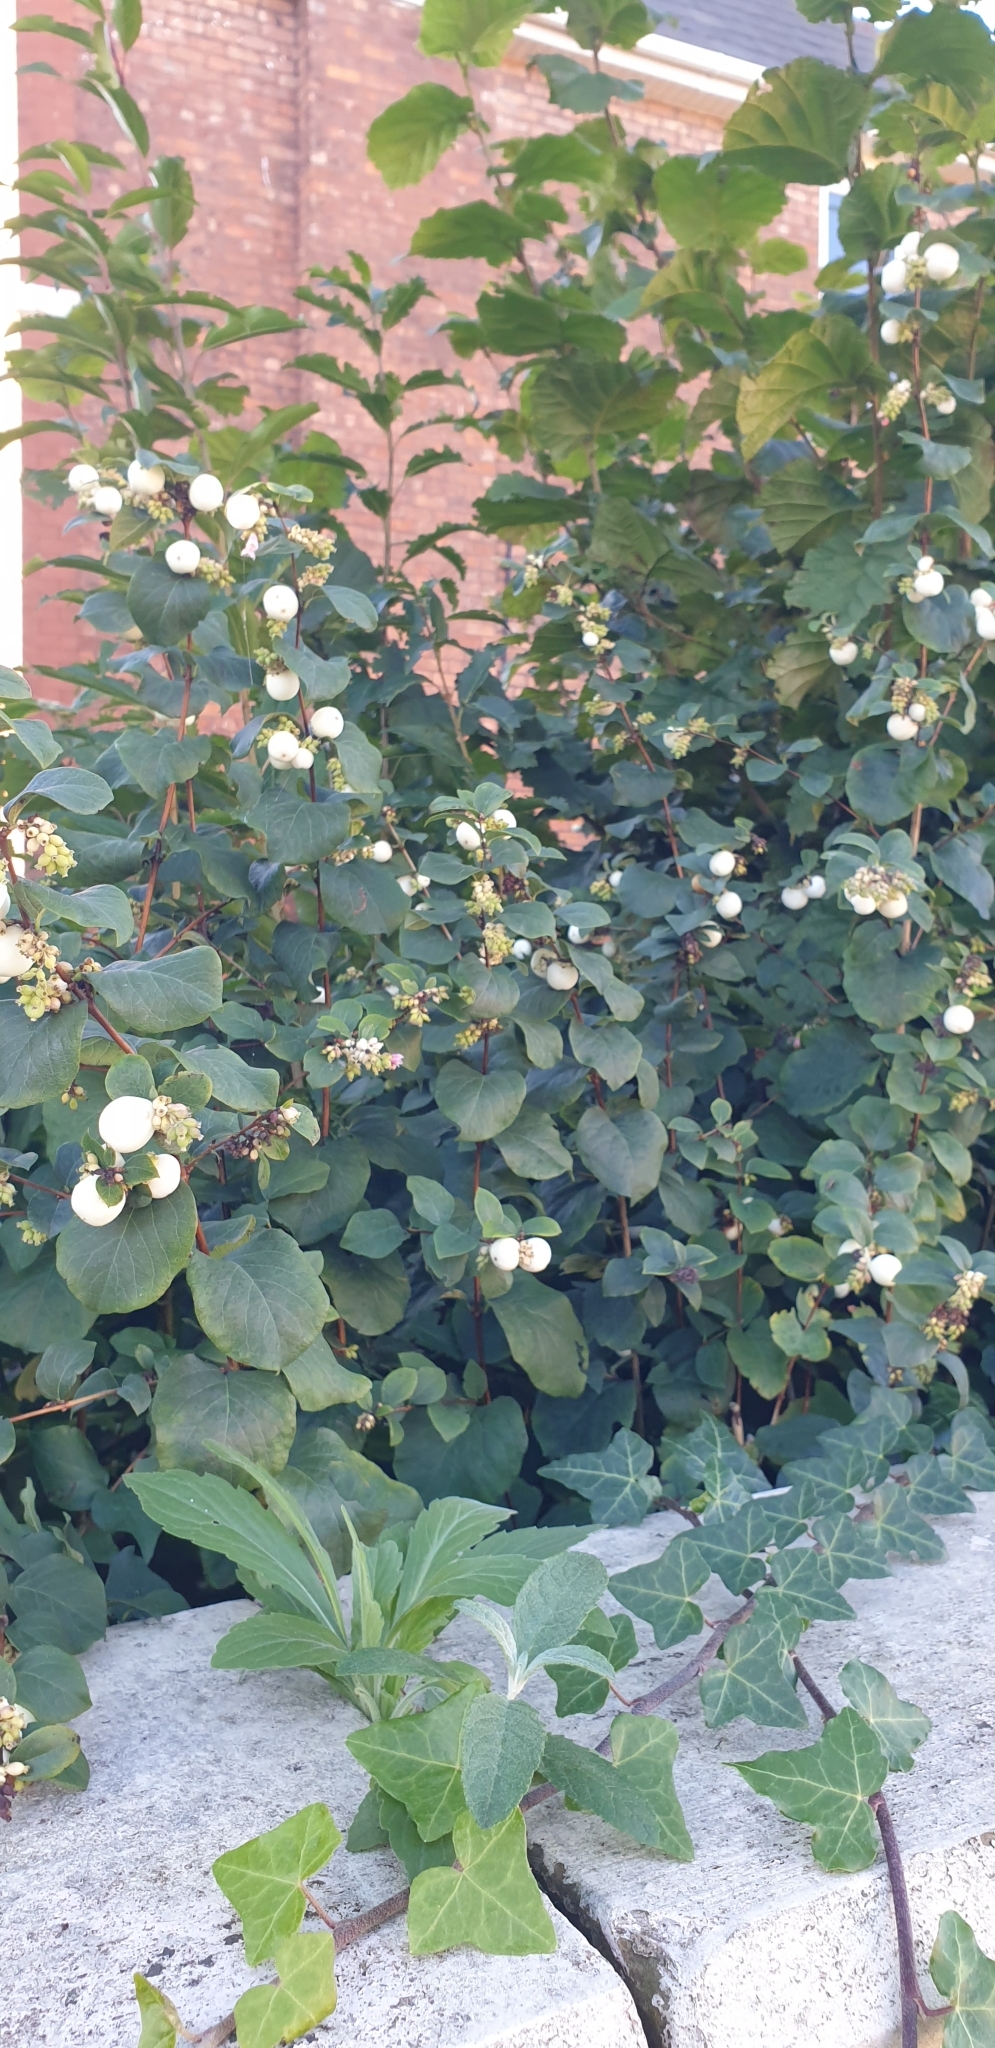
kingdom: Plantae
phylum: Tracheophyta
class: Magnoliopsida
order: Dipsacales
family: Caprifoliaceae
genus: Symphoricarpos
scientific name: Symphoricarpos albus
